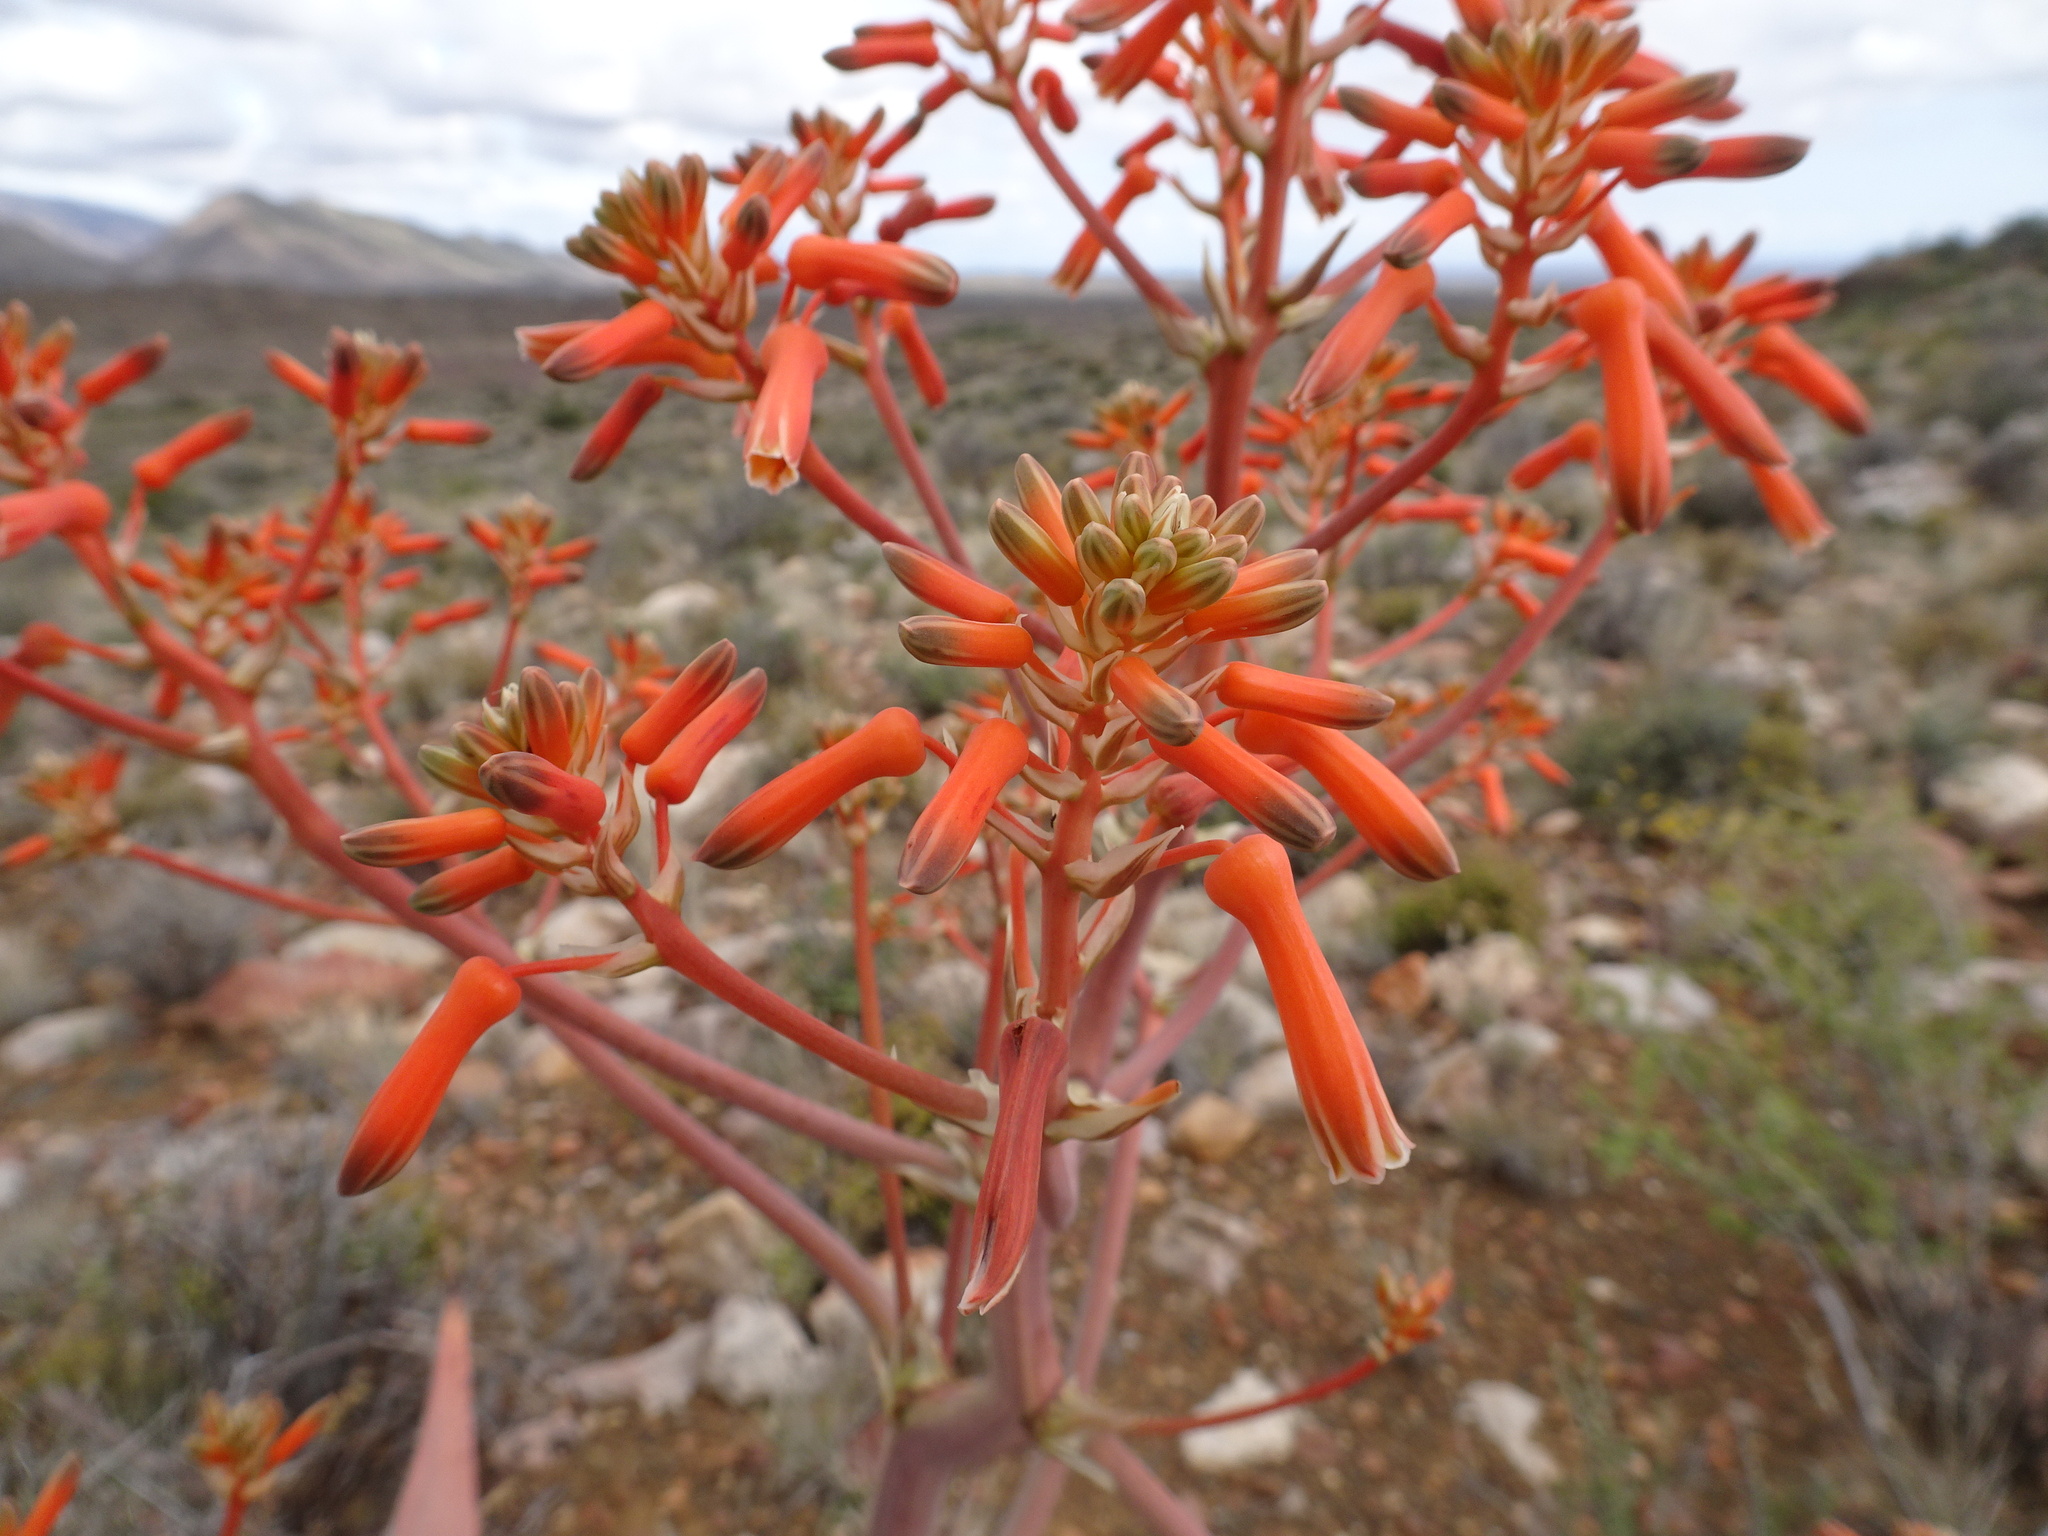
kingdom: Plantae
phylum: Tracheophyta
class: Liliopsida
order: Asparagales
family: Asphodelaceae
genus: Aloe
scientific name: Aloe striata
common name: Coral aloe
